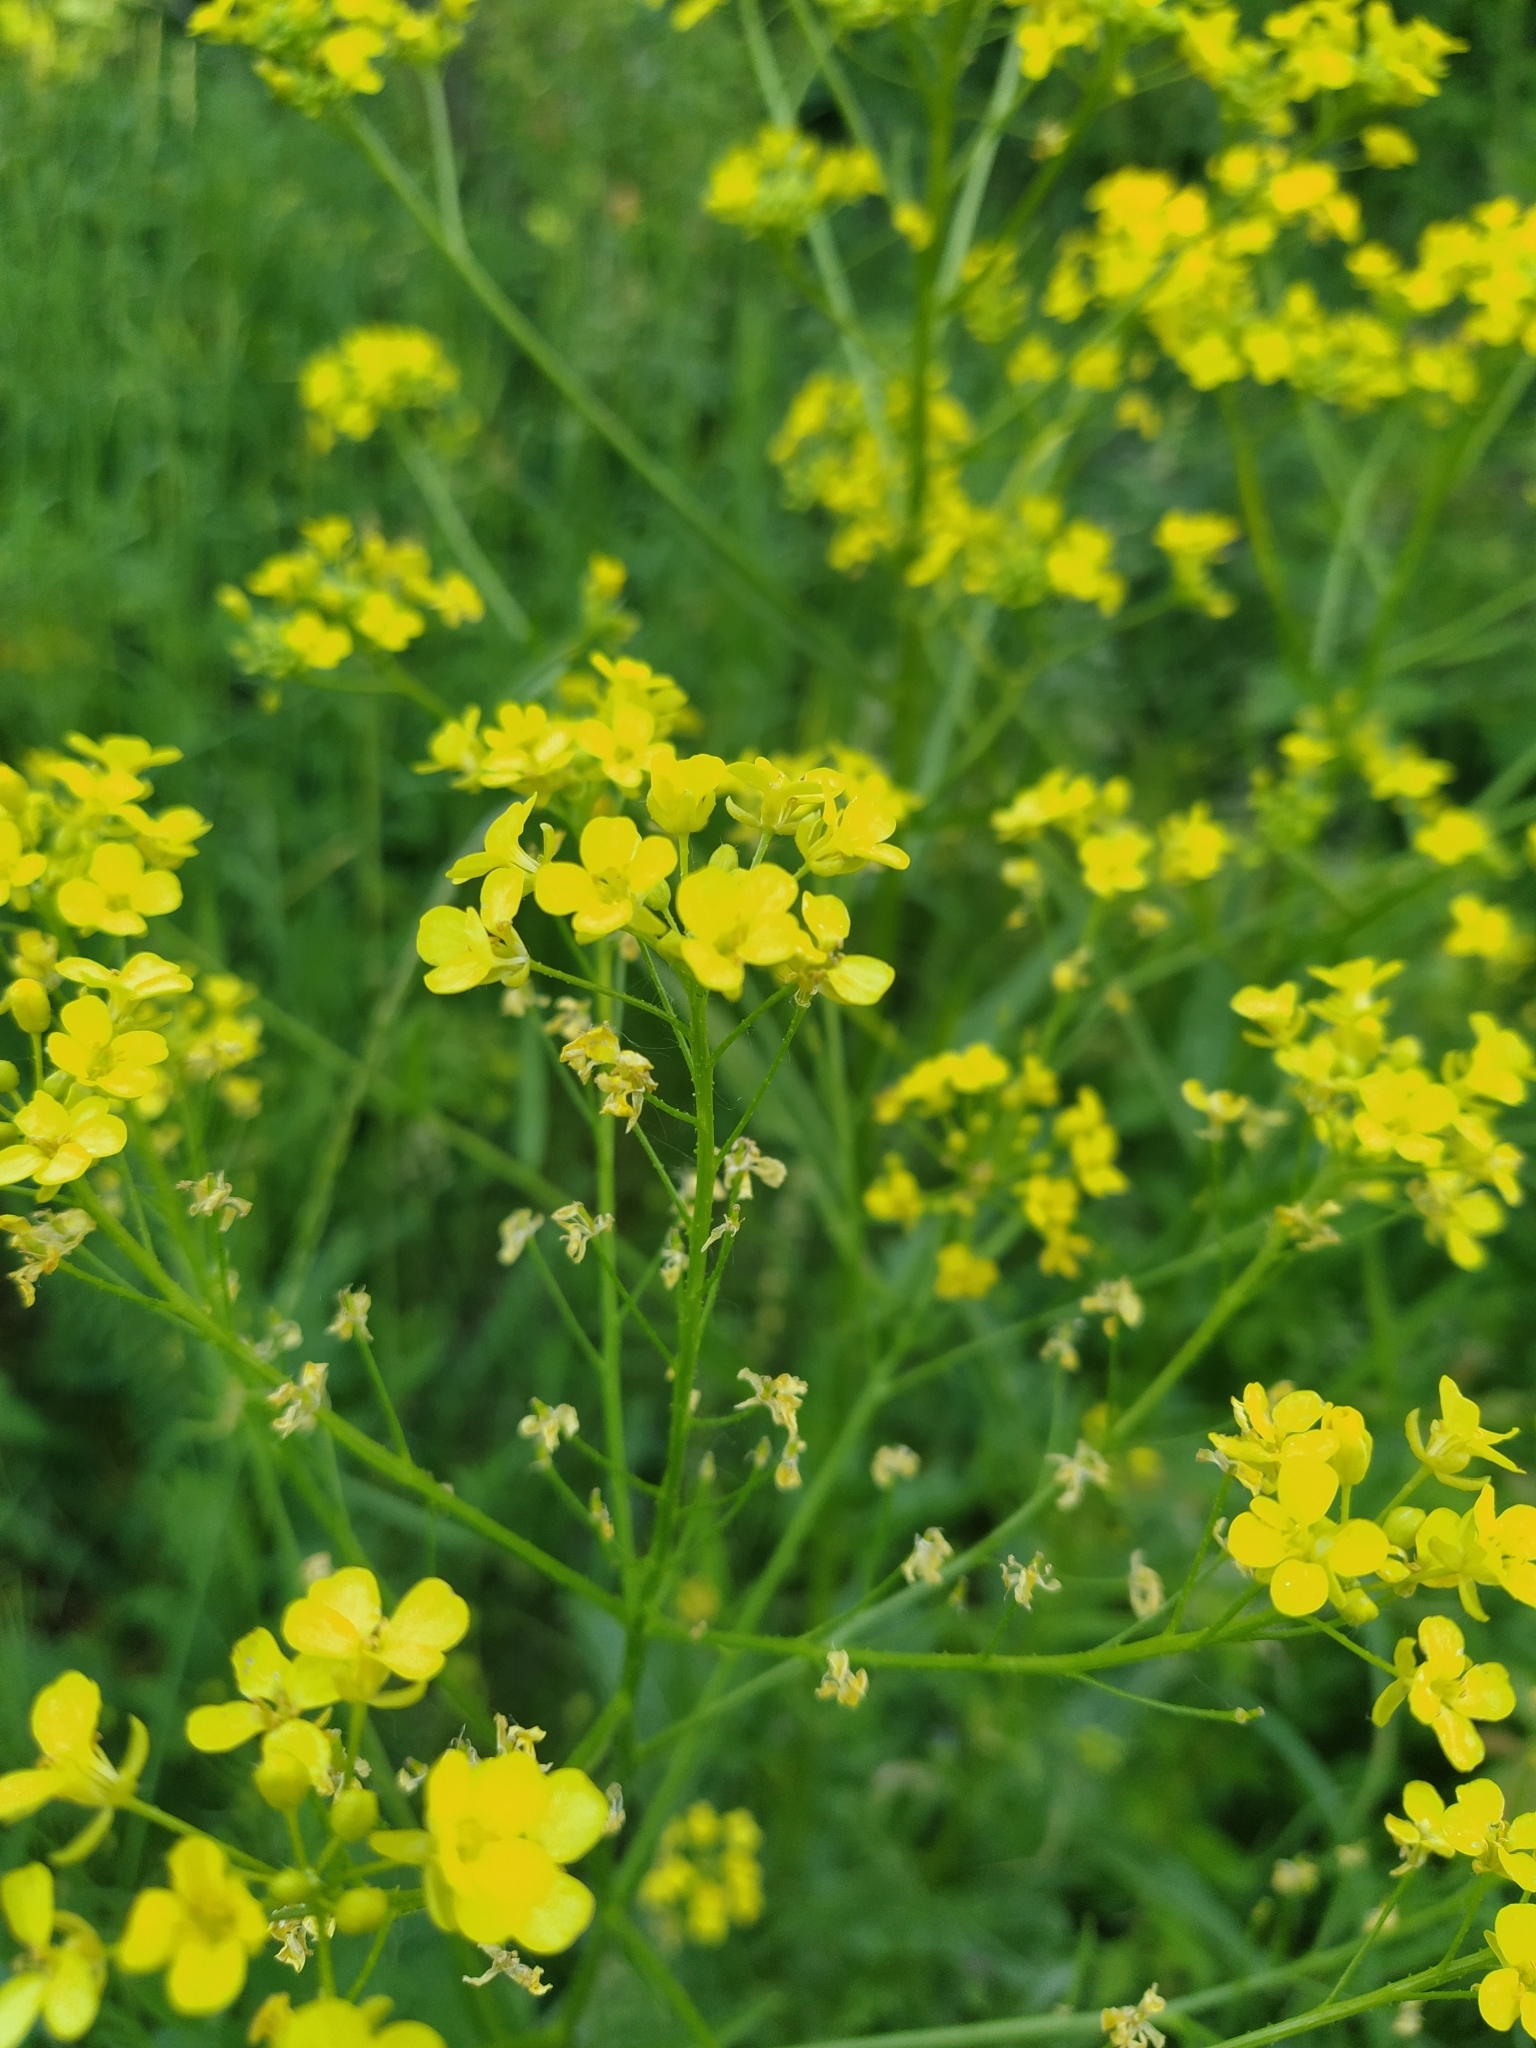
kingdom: Plantae
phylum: Tracheophyta
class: Magnoliopsida
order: Brassicales
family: Brassicaceae
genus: Bunias
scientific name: Bunias orientalis
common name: Warty-cabbage
